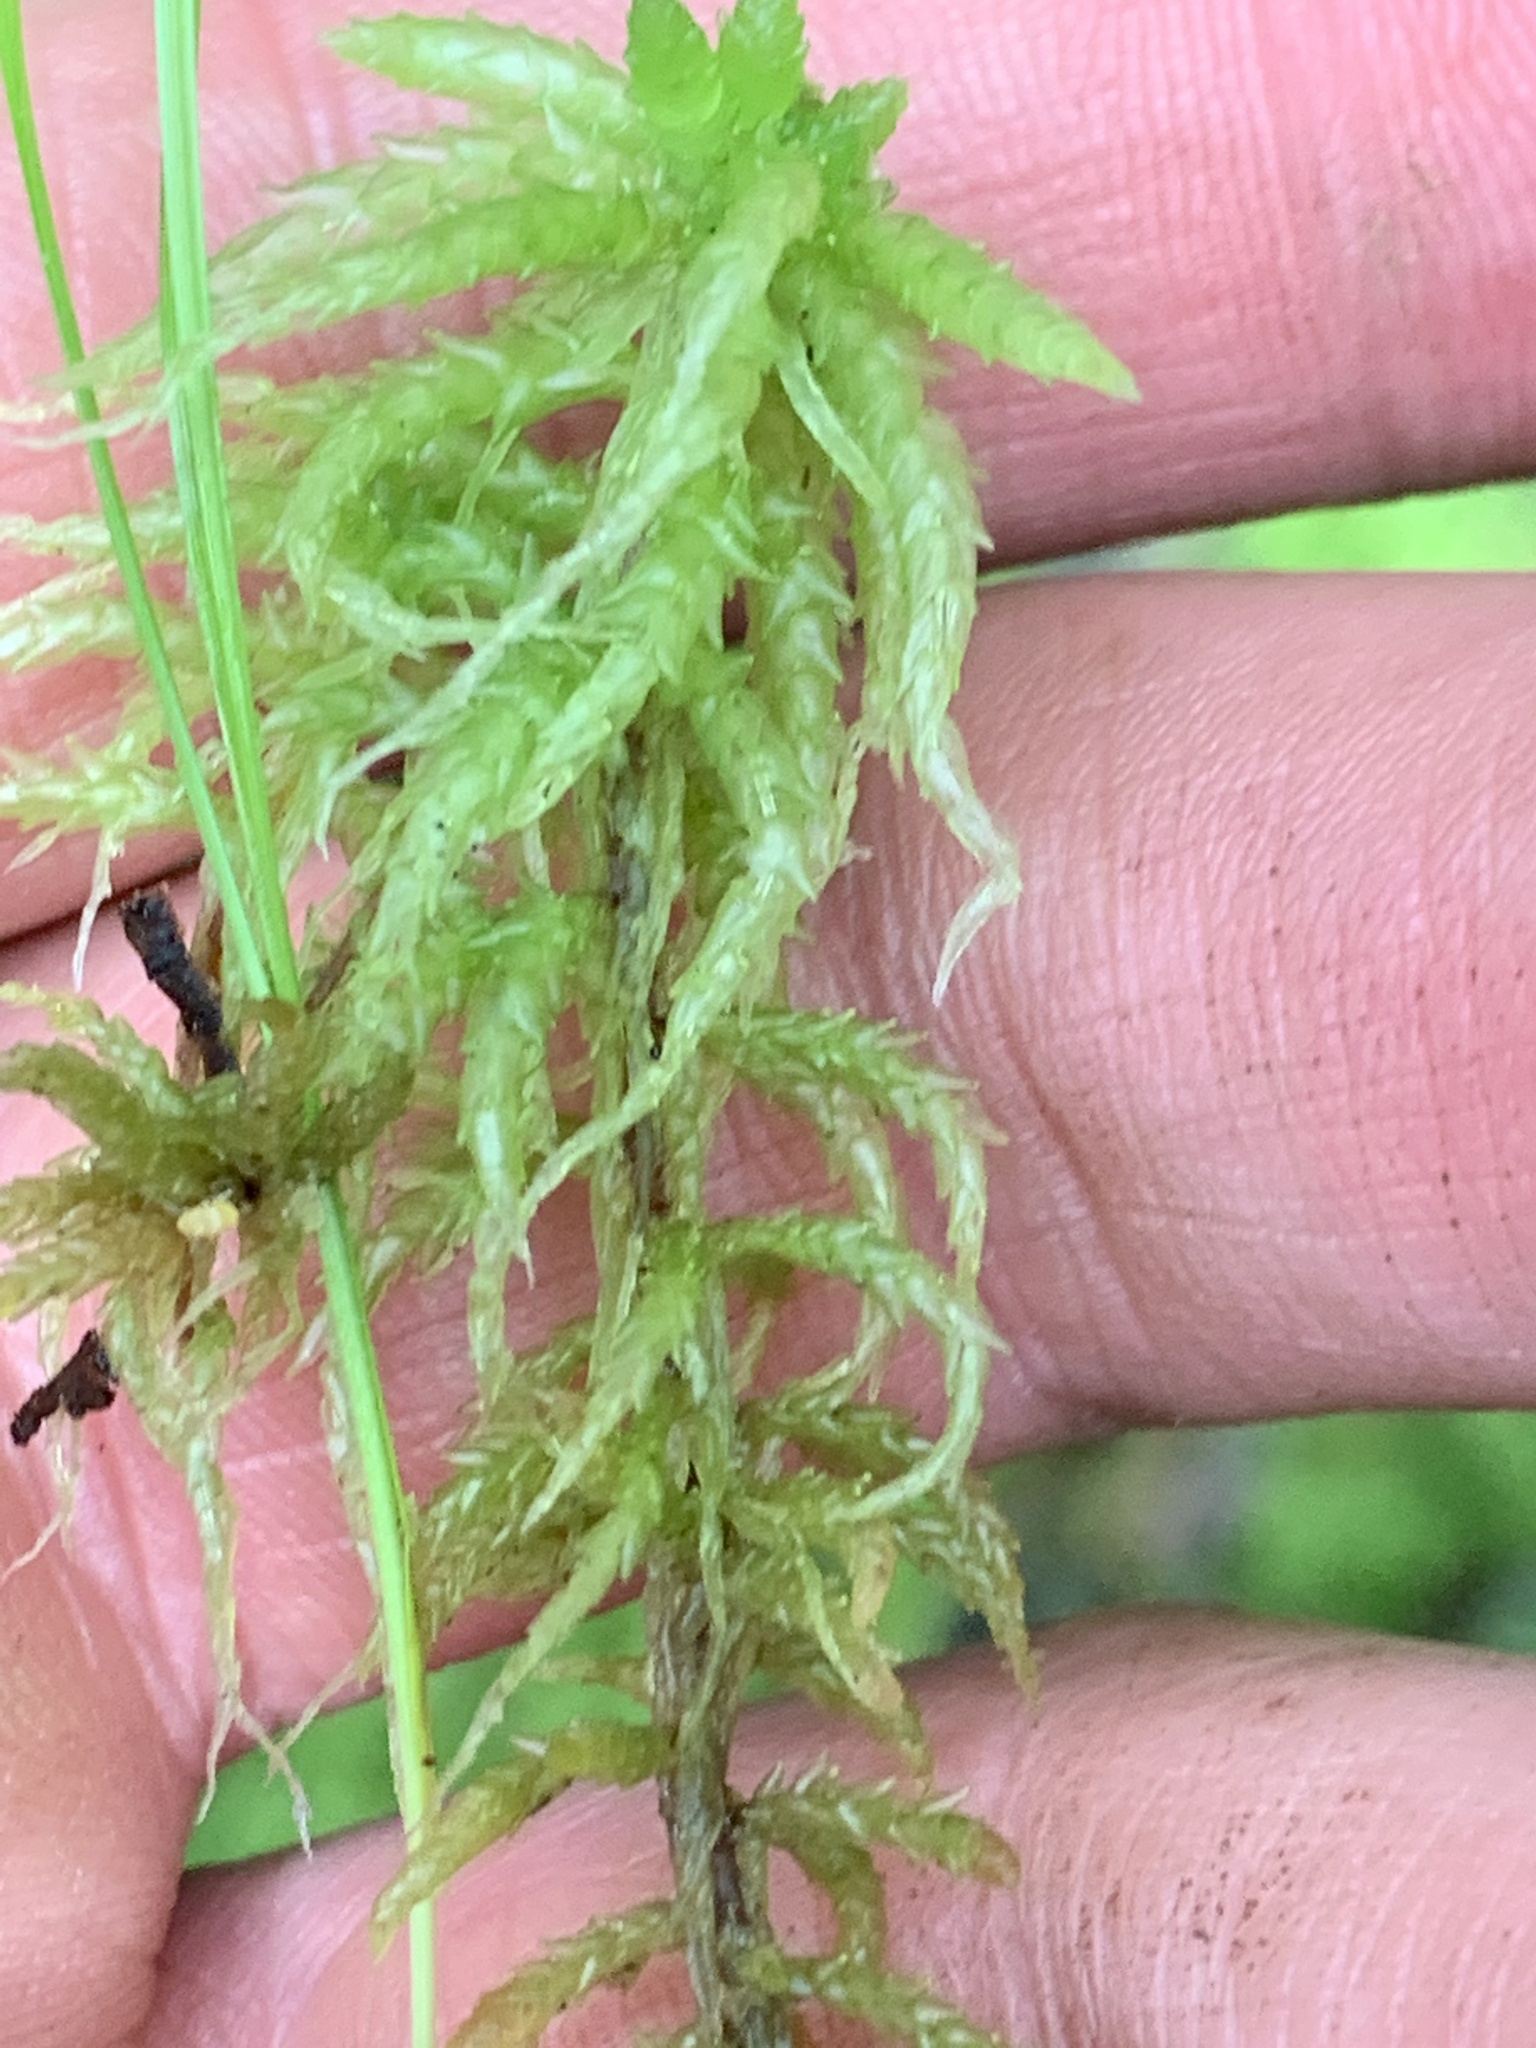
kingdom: Plantae
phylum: Bryophyta
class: Sphagnopsida
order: Sphagnales
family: Sphagnaceae
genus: Sphagnum
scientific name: Sphagnum
